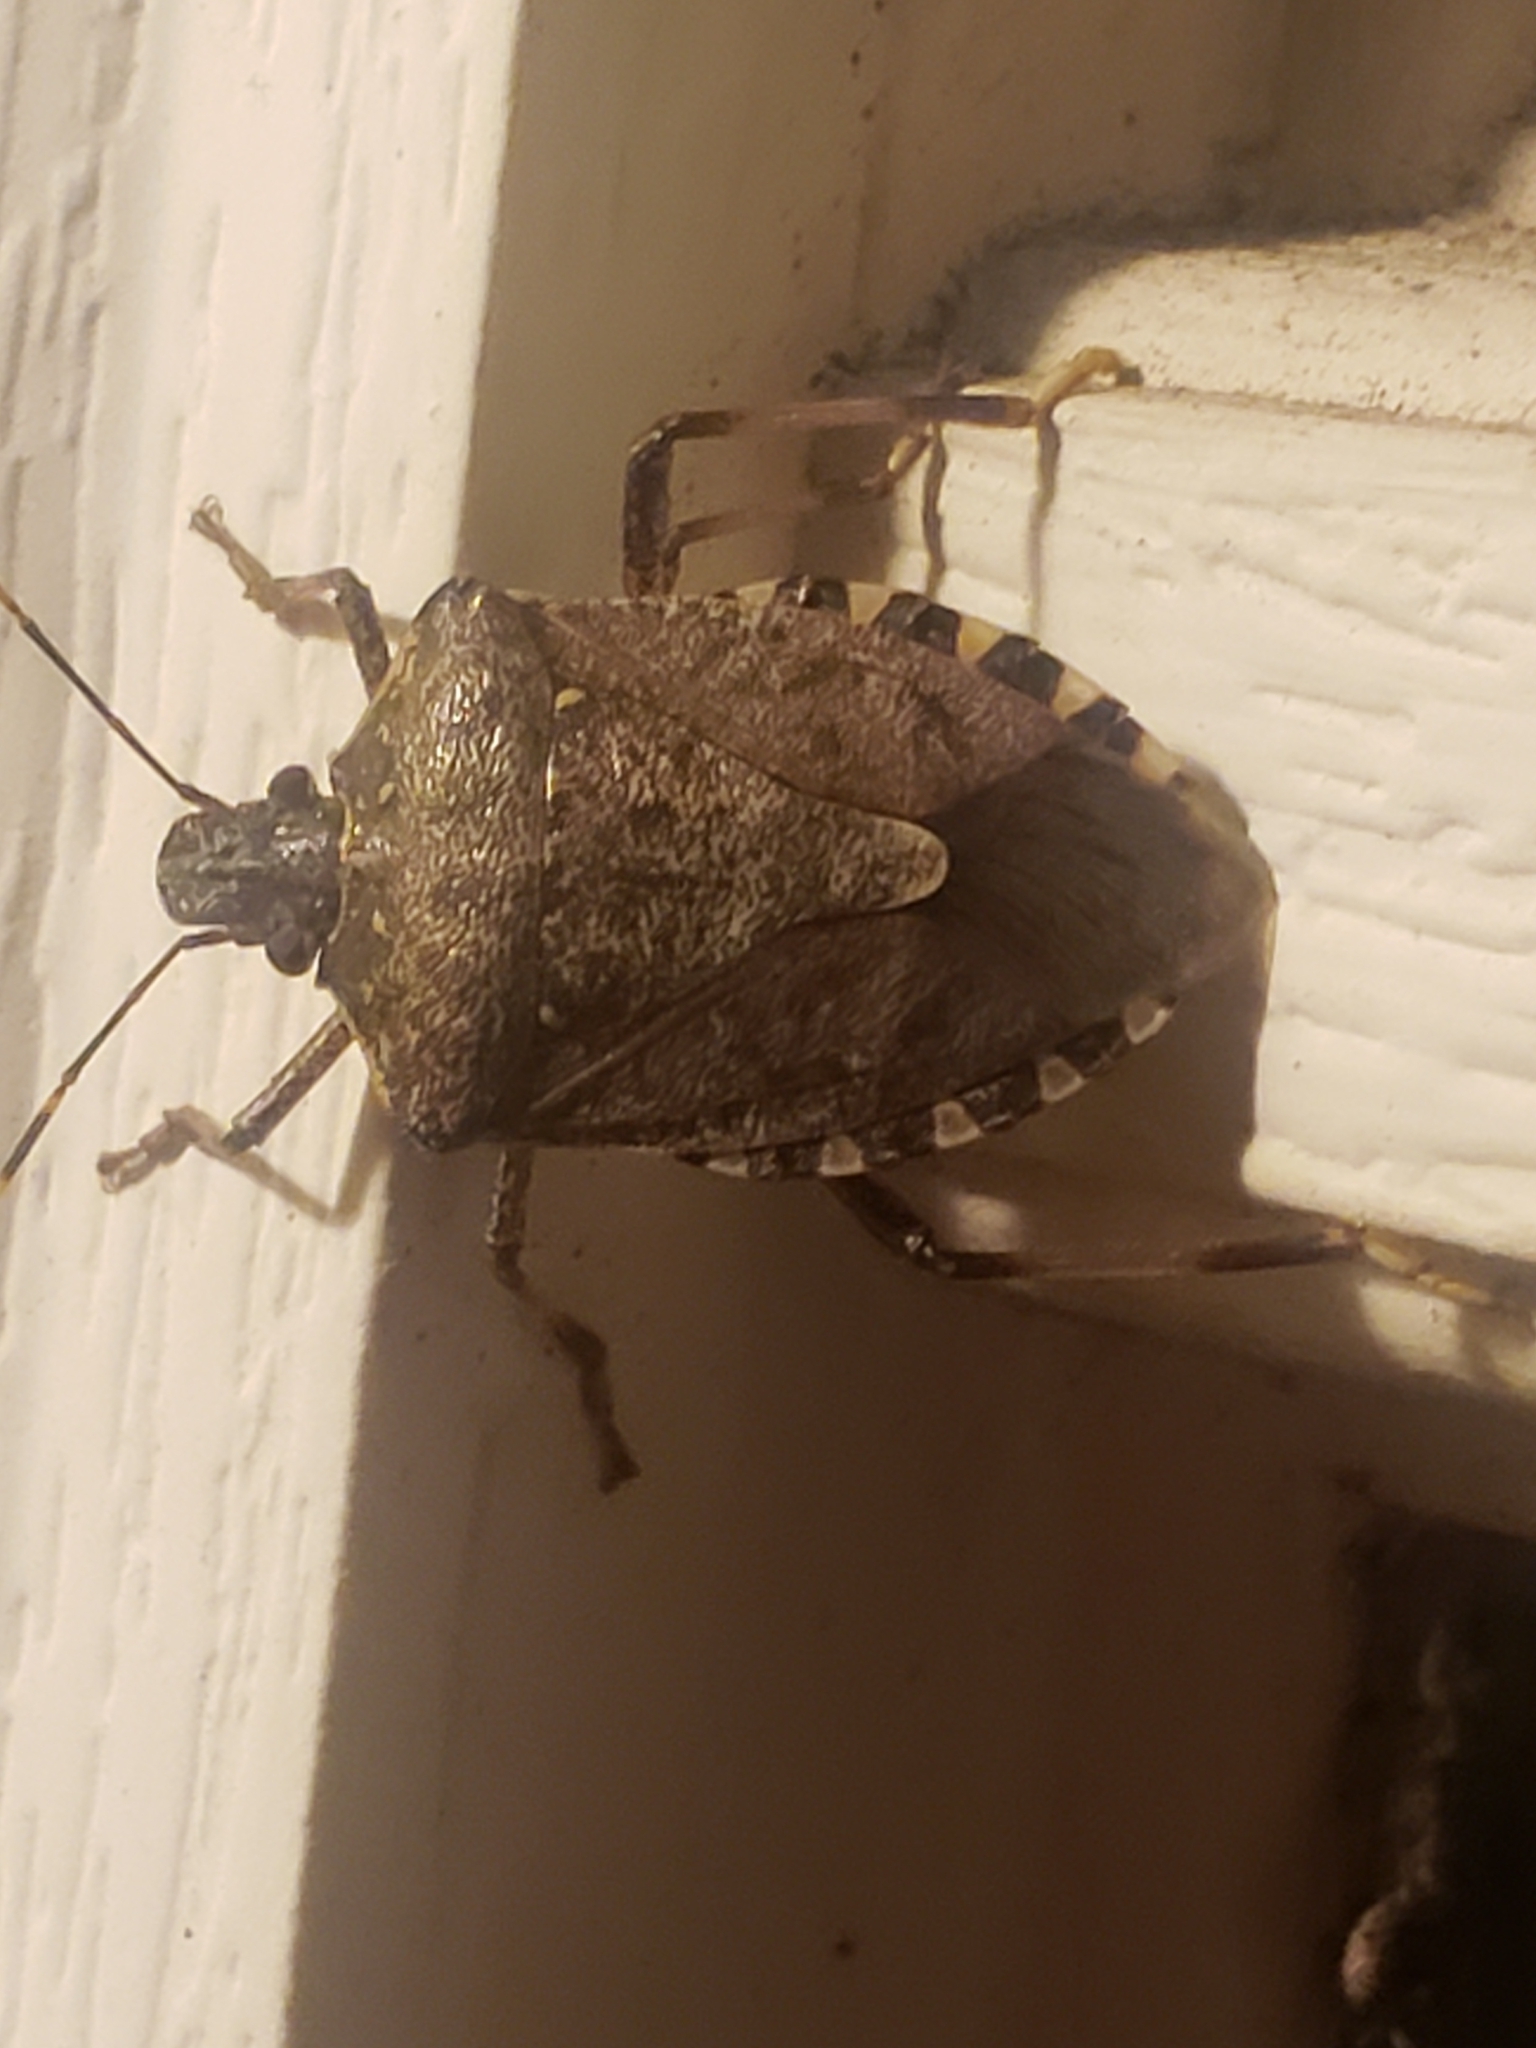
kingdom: Animalia
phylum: Arthropoda
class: Insecta
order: Hemiptera
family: Pentatomidae
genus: Halyomorpha
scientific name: Halyomorpha halys
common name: Brown marmorated stink bug
